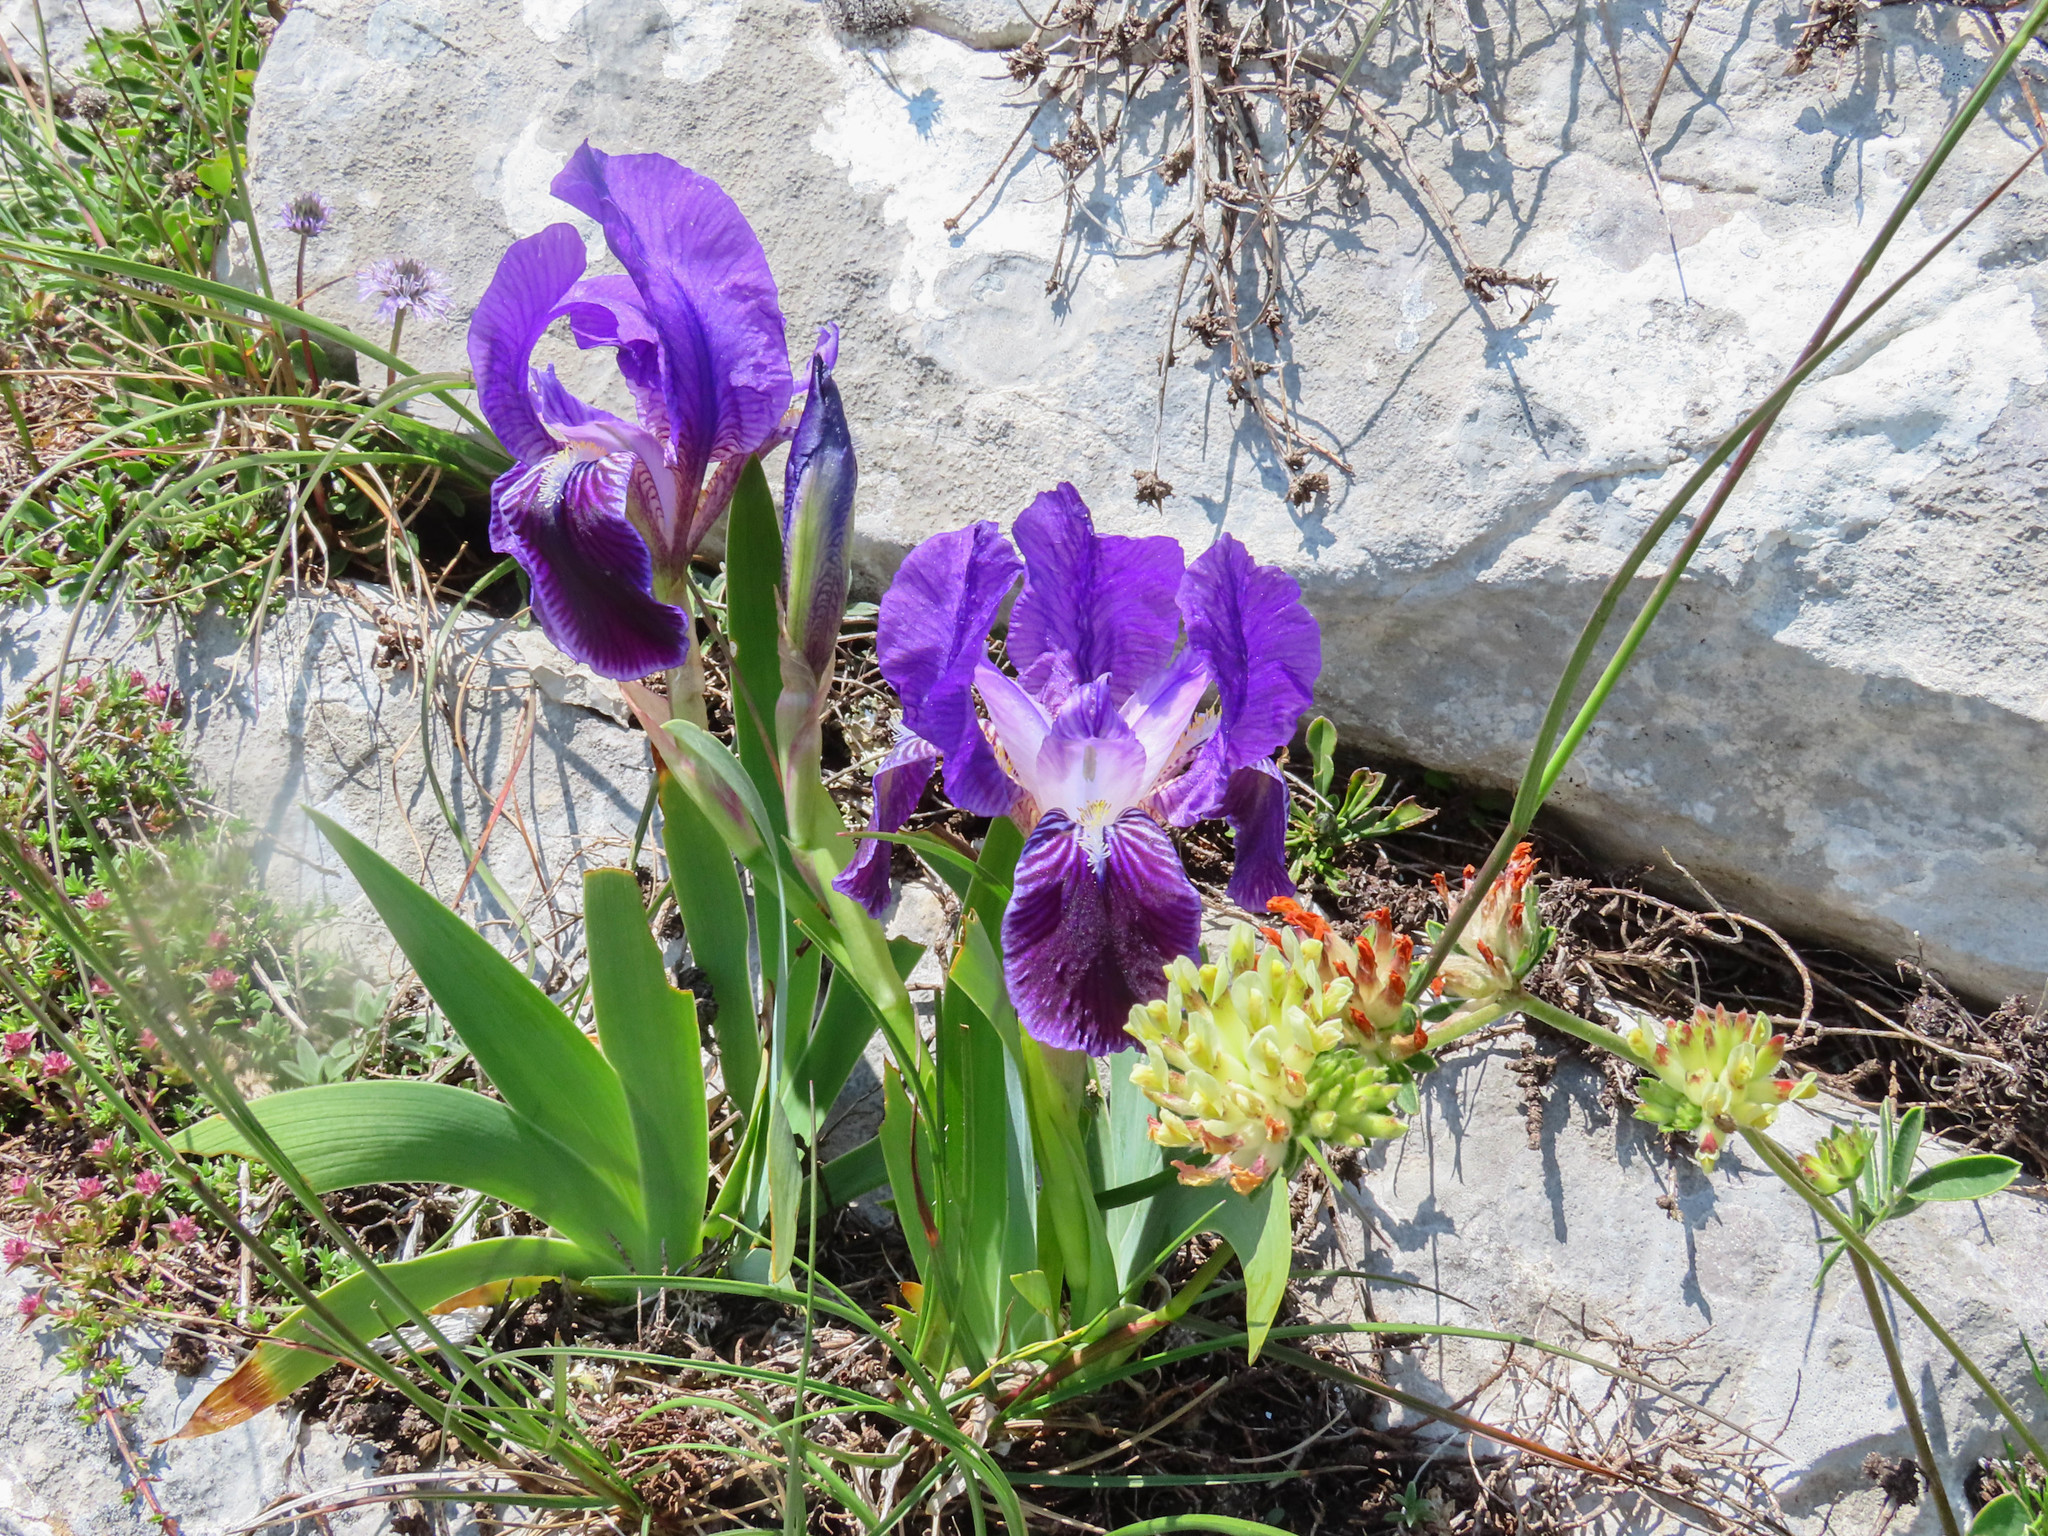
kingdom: Plantae
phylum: Tracheophyta
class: Liliopsida
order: Asparagales
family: Iridaceae
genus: Iris
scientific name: Iris germanica
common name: German iris
